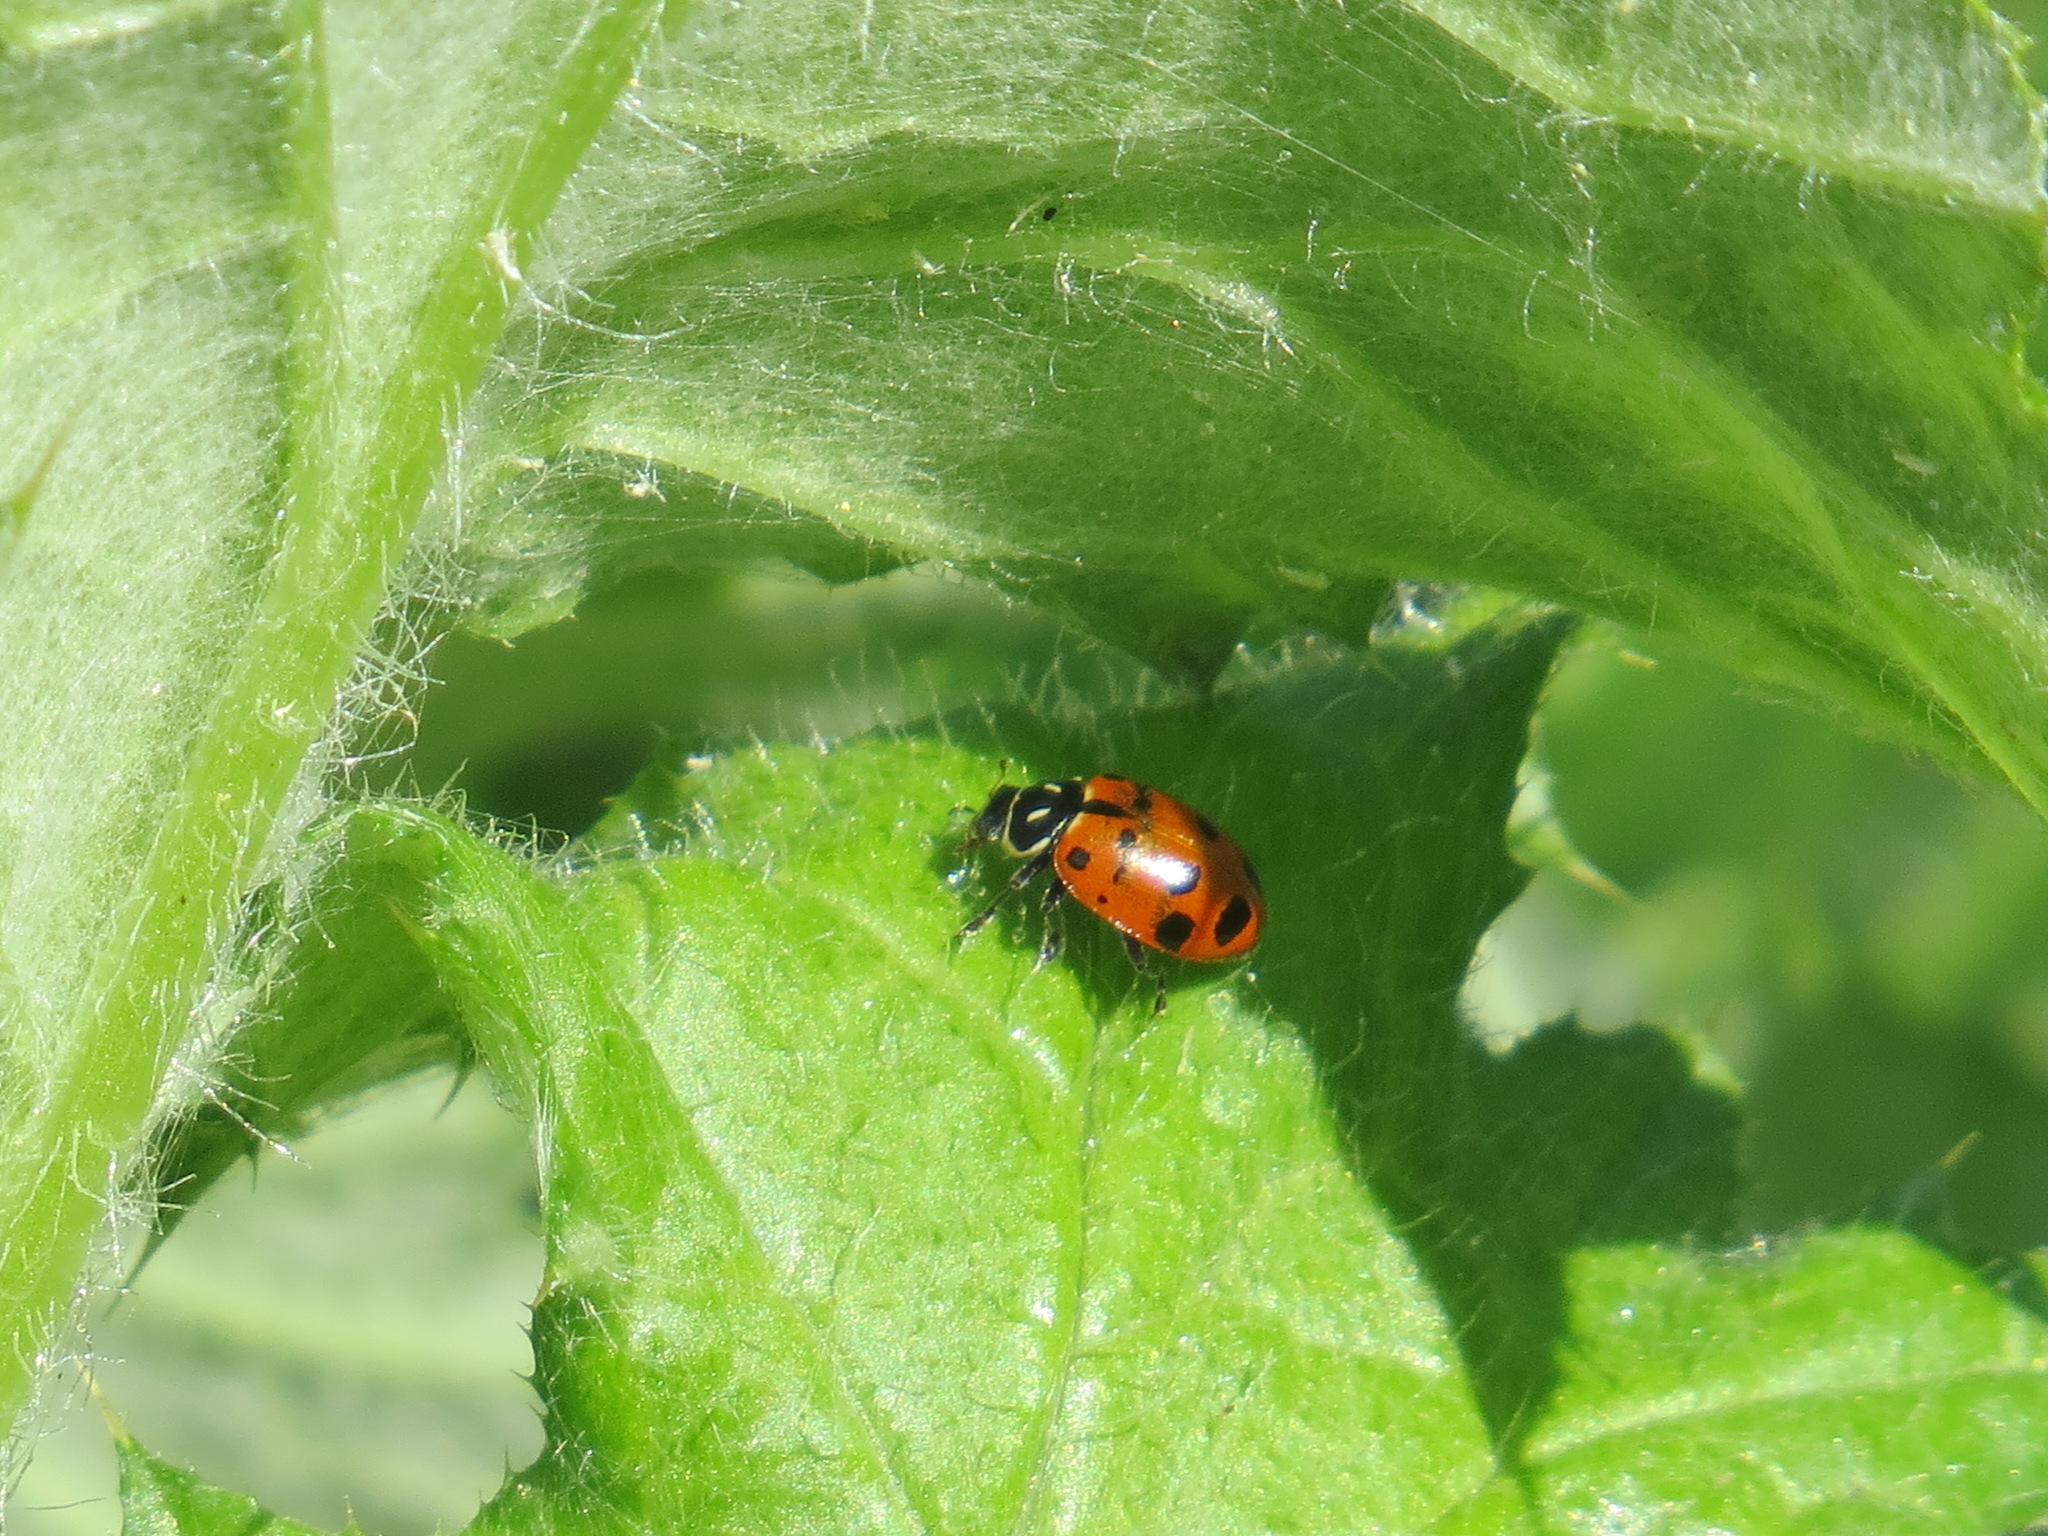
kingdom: Animalia
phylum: Arthropoda
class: Insecta
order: Coleoptera
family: Coccinellidae
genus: Hippodamia
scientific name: Hippodamia convergens
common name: Convergent lady beetle
